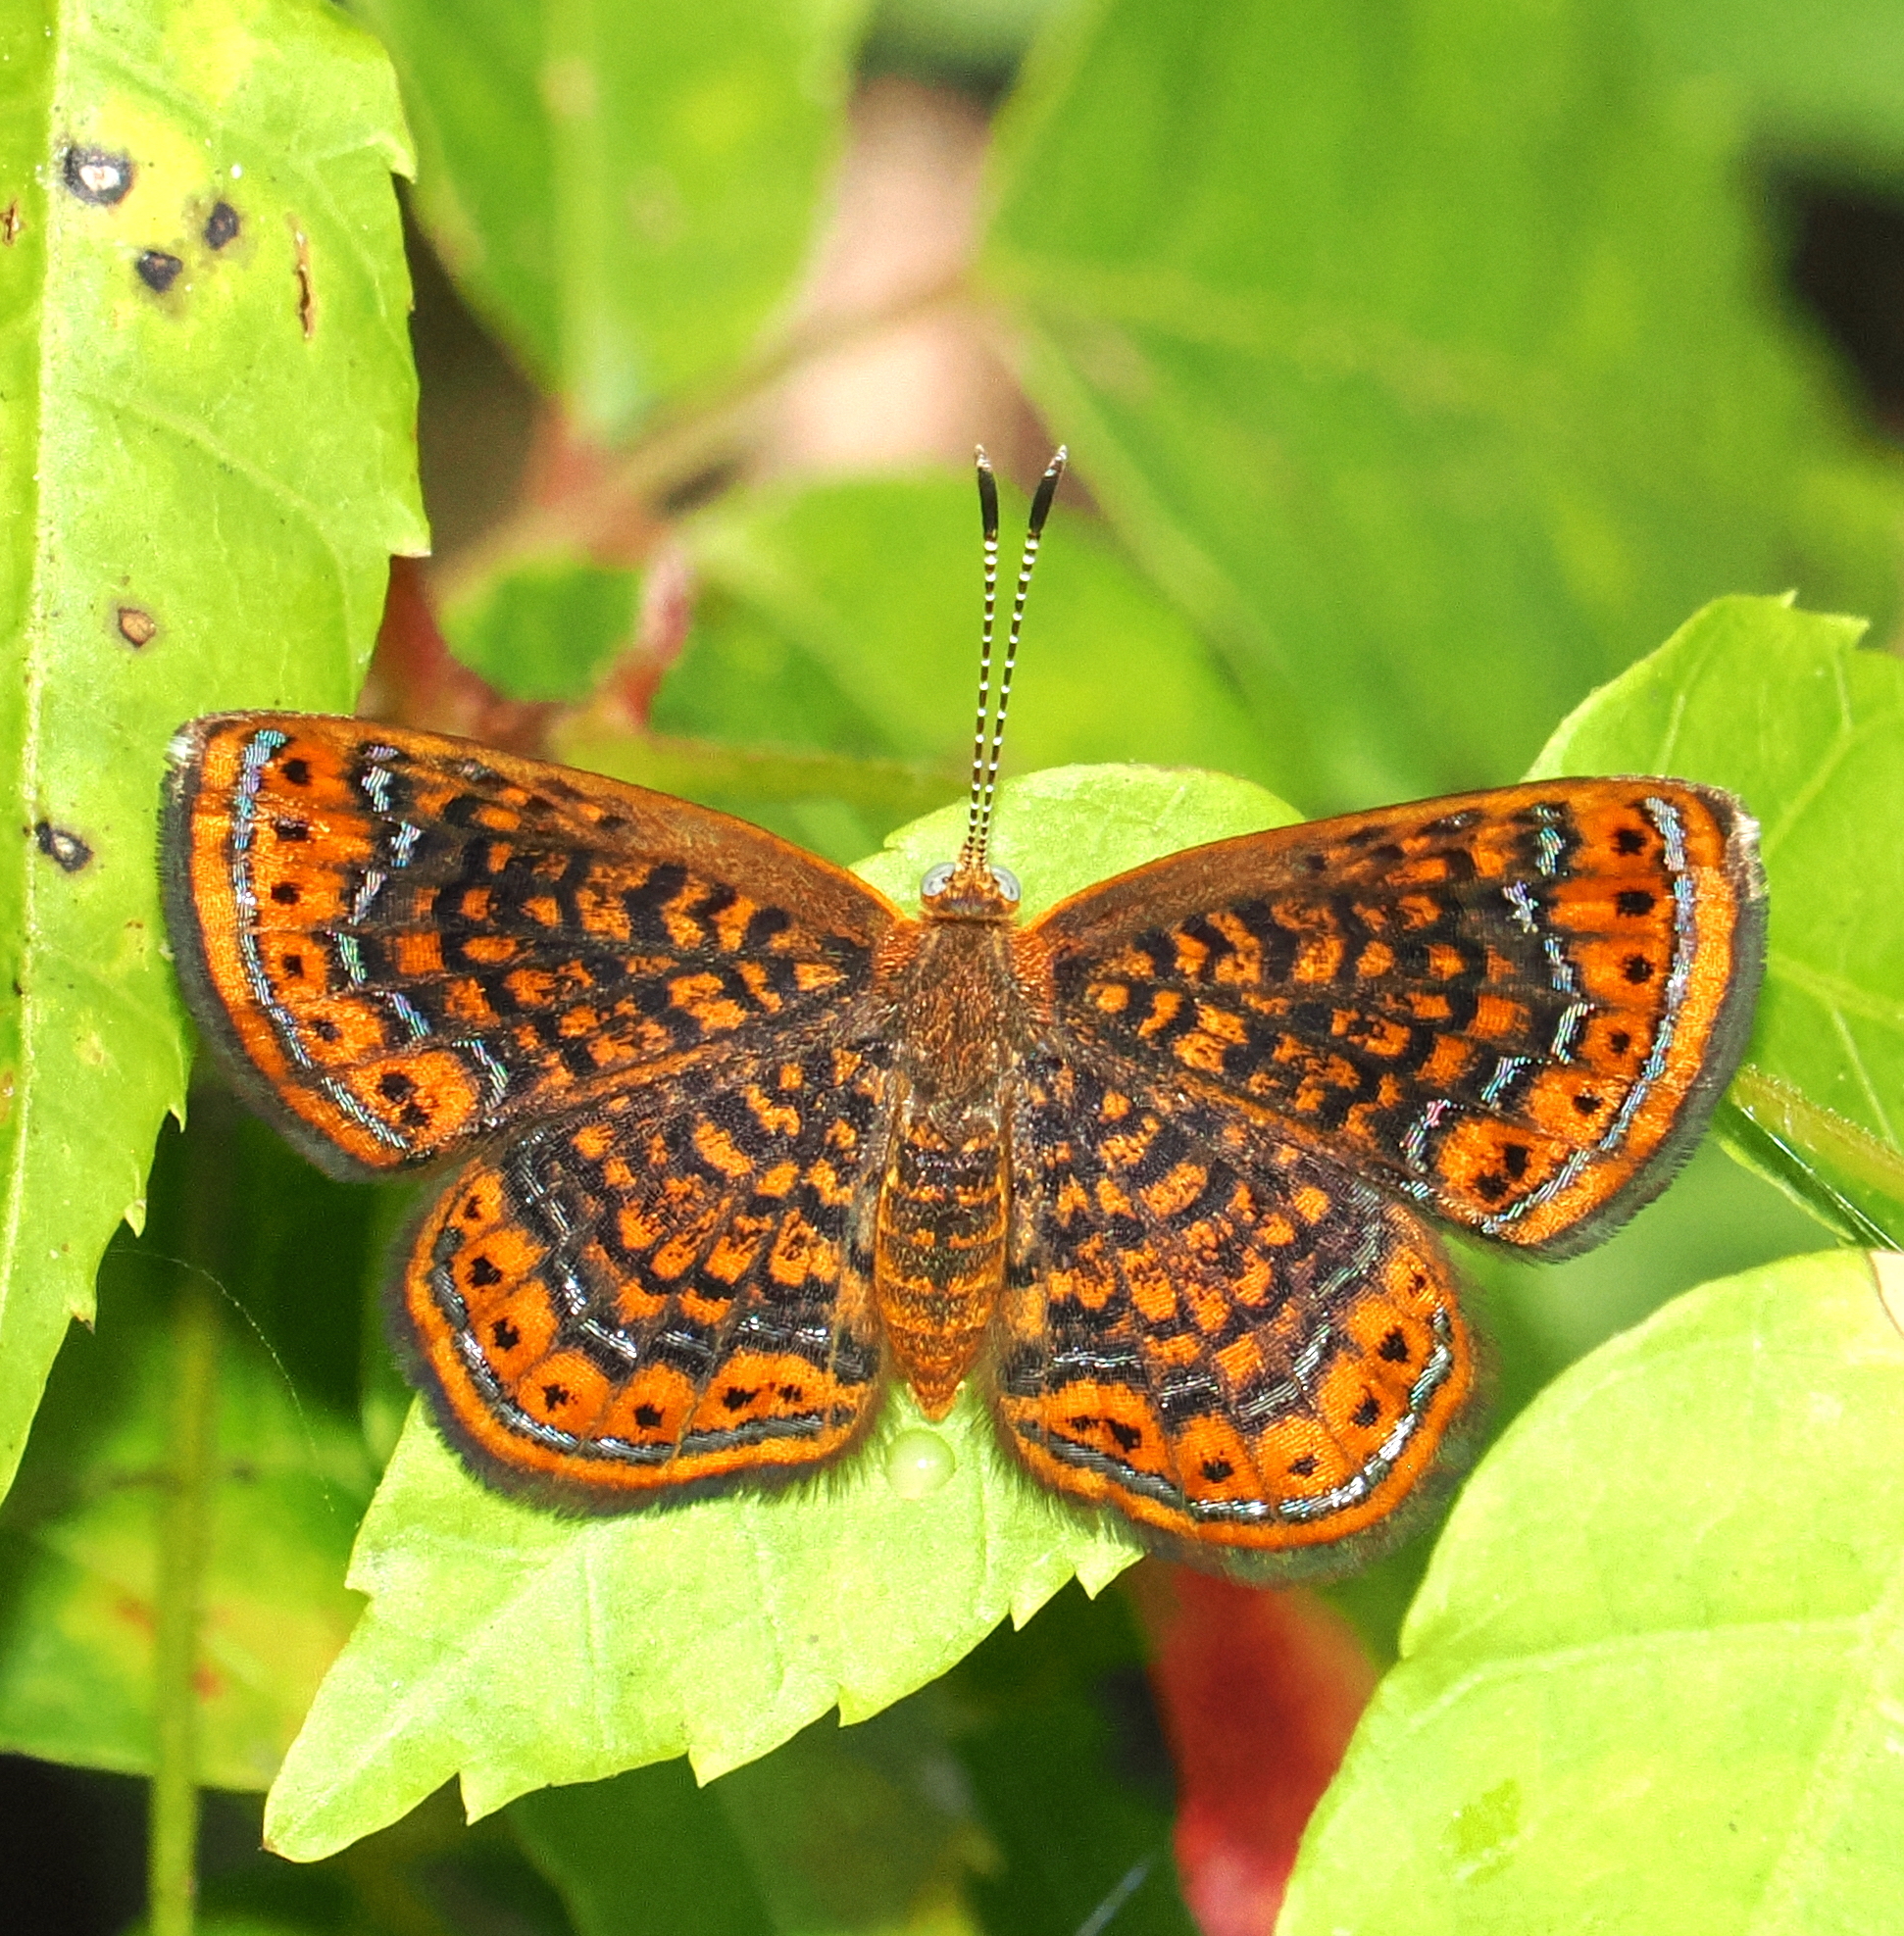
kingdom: Animalia
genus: Calephelis
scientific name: Calephelis laverna
